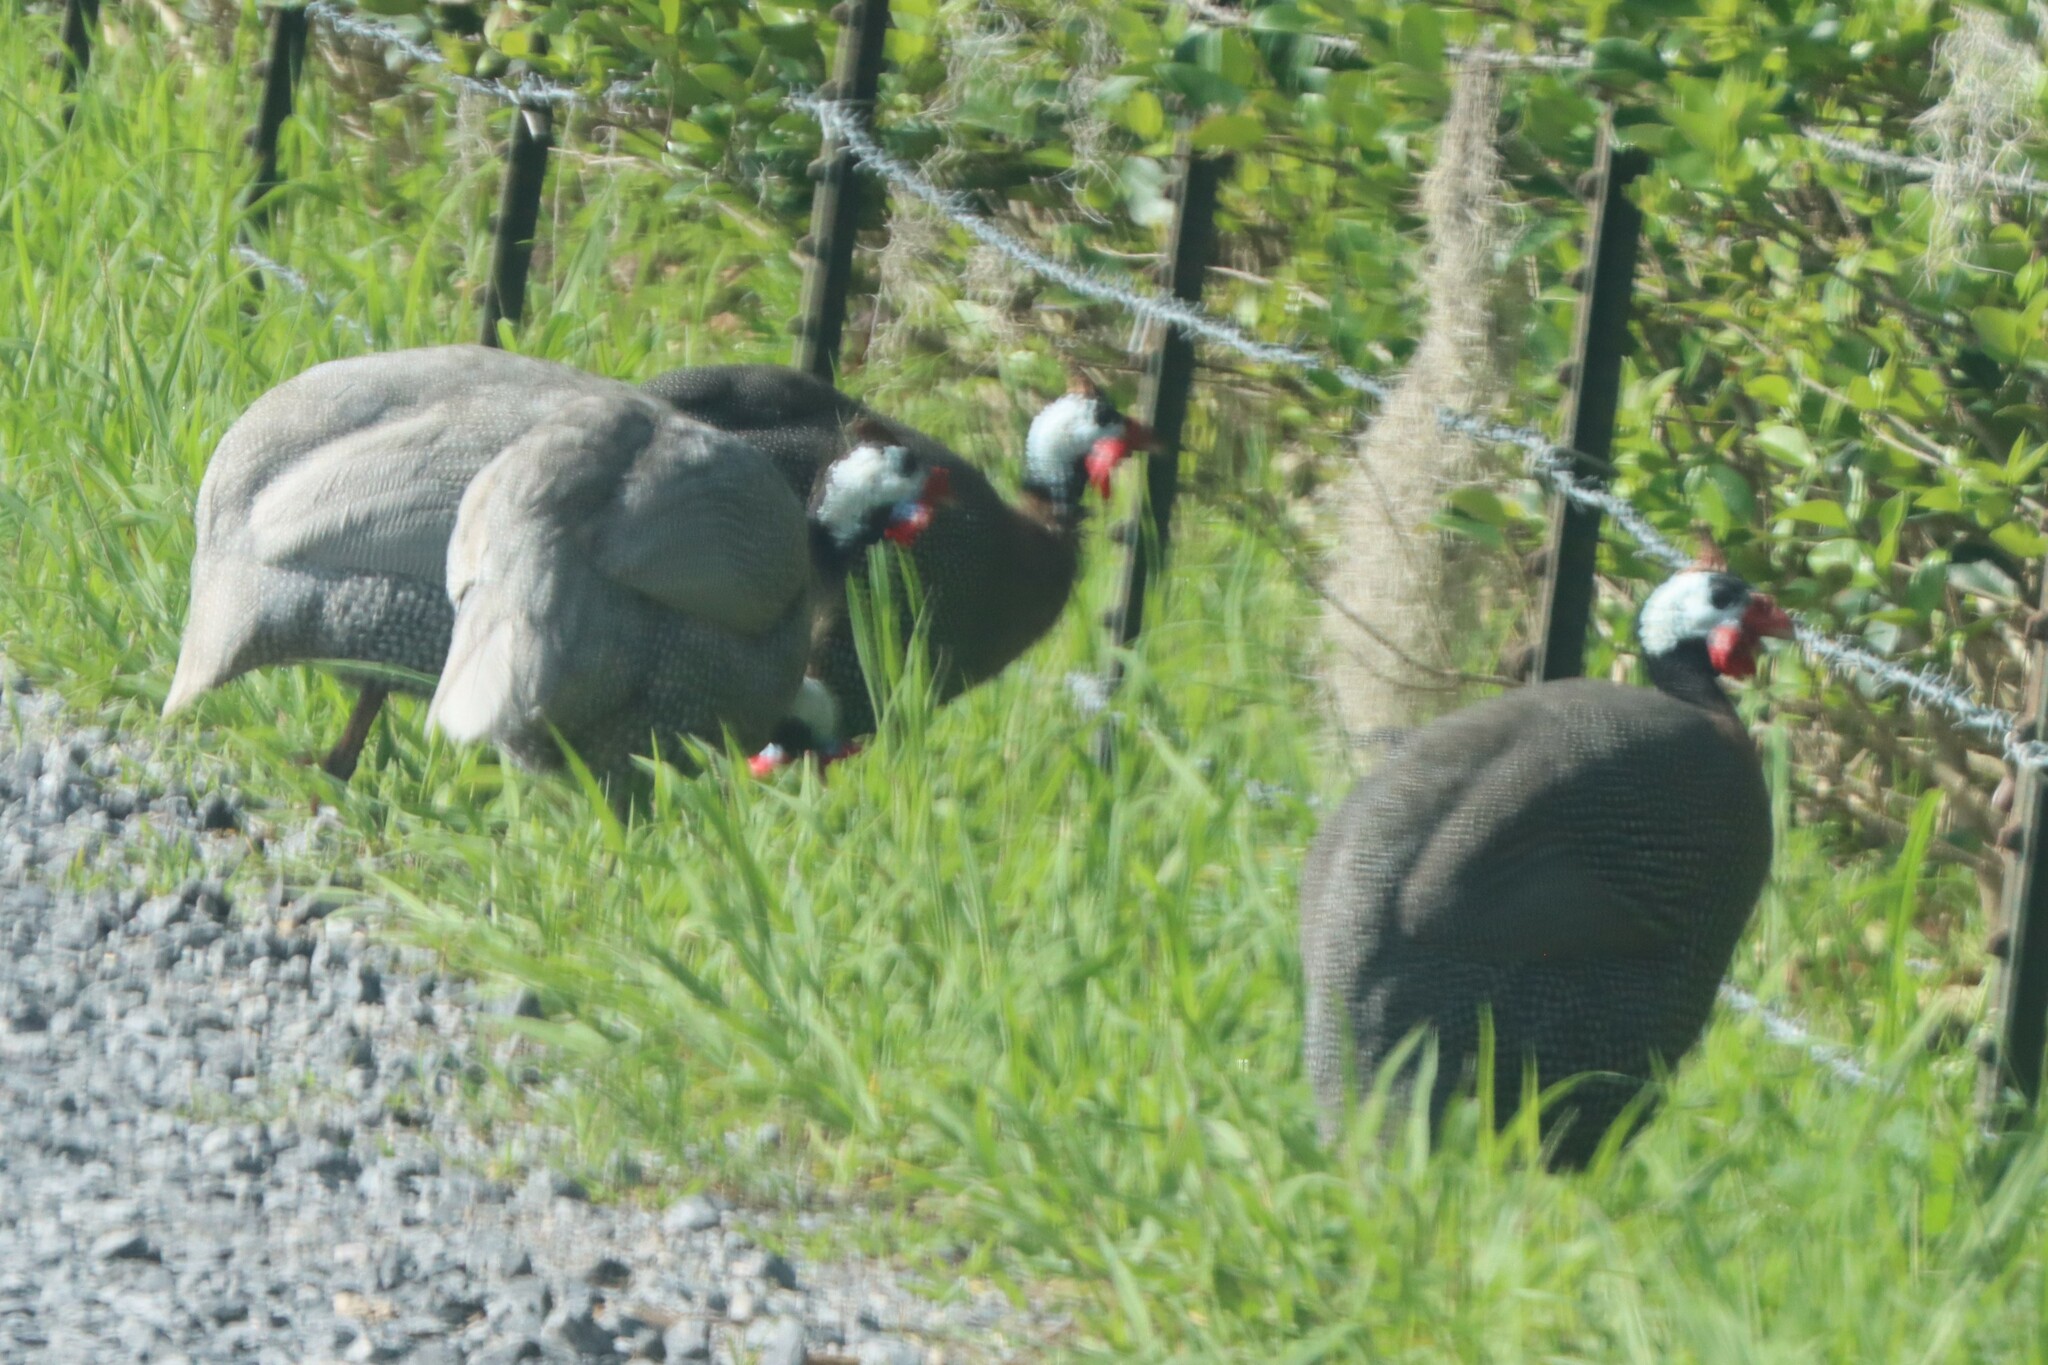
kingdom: Animalia
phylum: Chordata
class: Aves
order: Galliformes
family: Numididae
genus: Numida
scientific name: Numida meleagris
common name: Helmeted guineafowl
